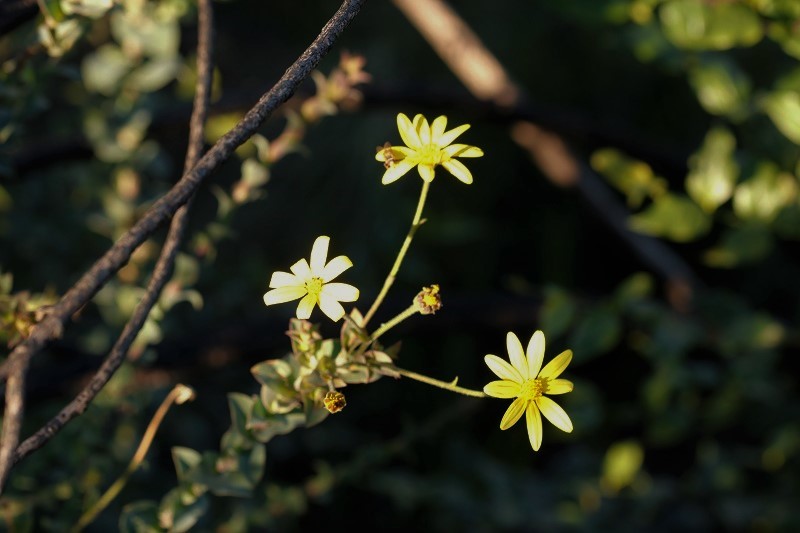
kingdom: Plantae
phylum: Tracheophyta
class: Magnoliopsida
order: Asterales
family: Asteraceae
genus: Osteospermum
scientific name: Osteospermum polygaloides
